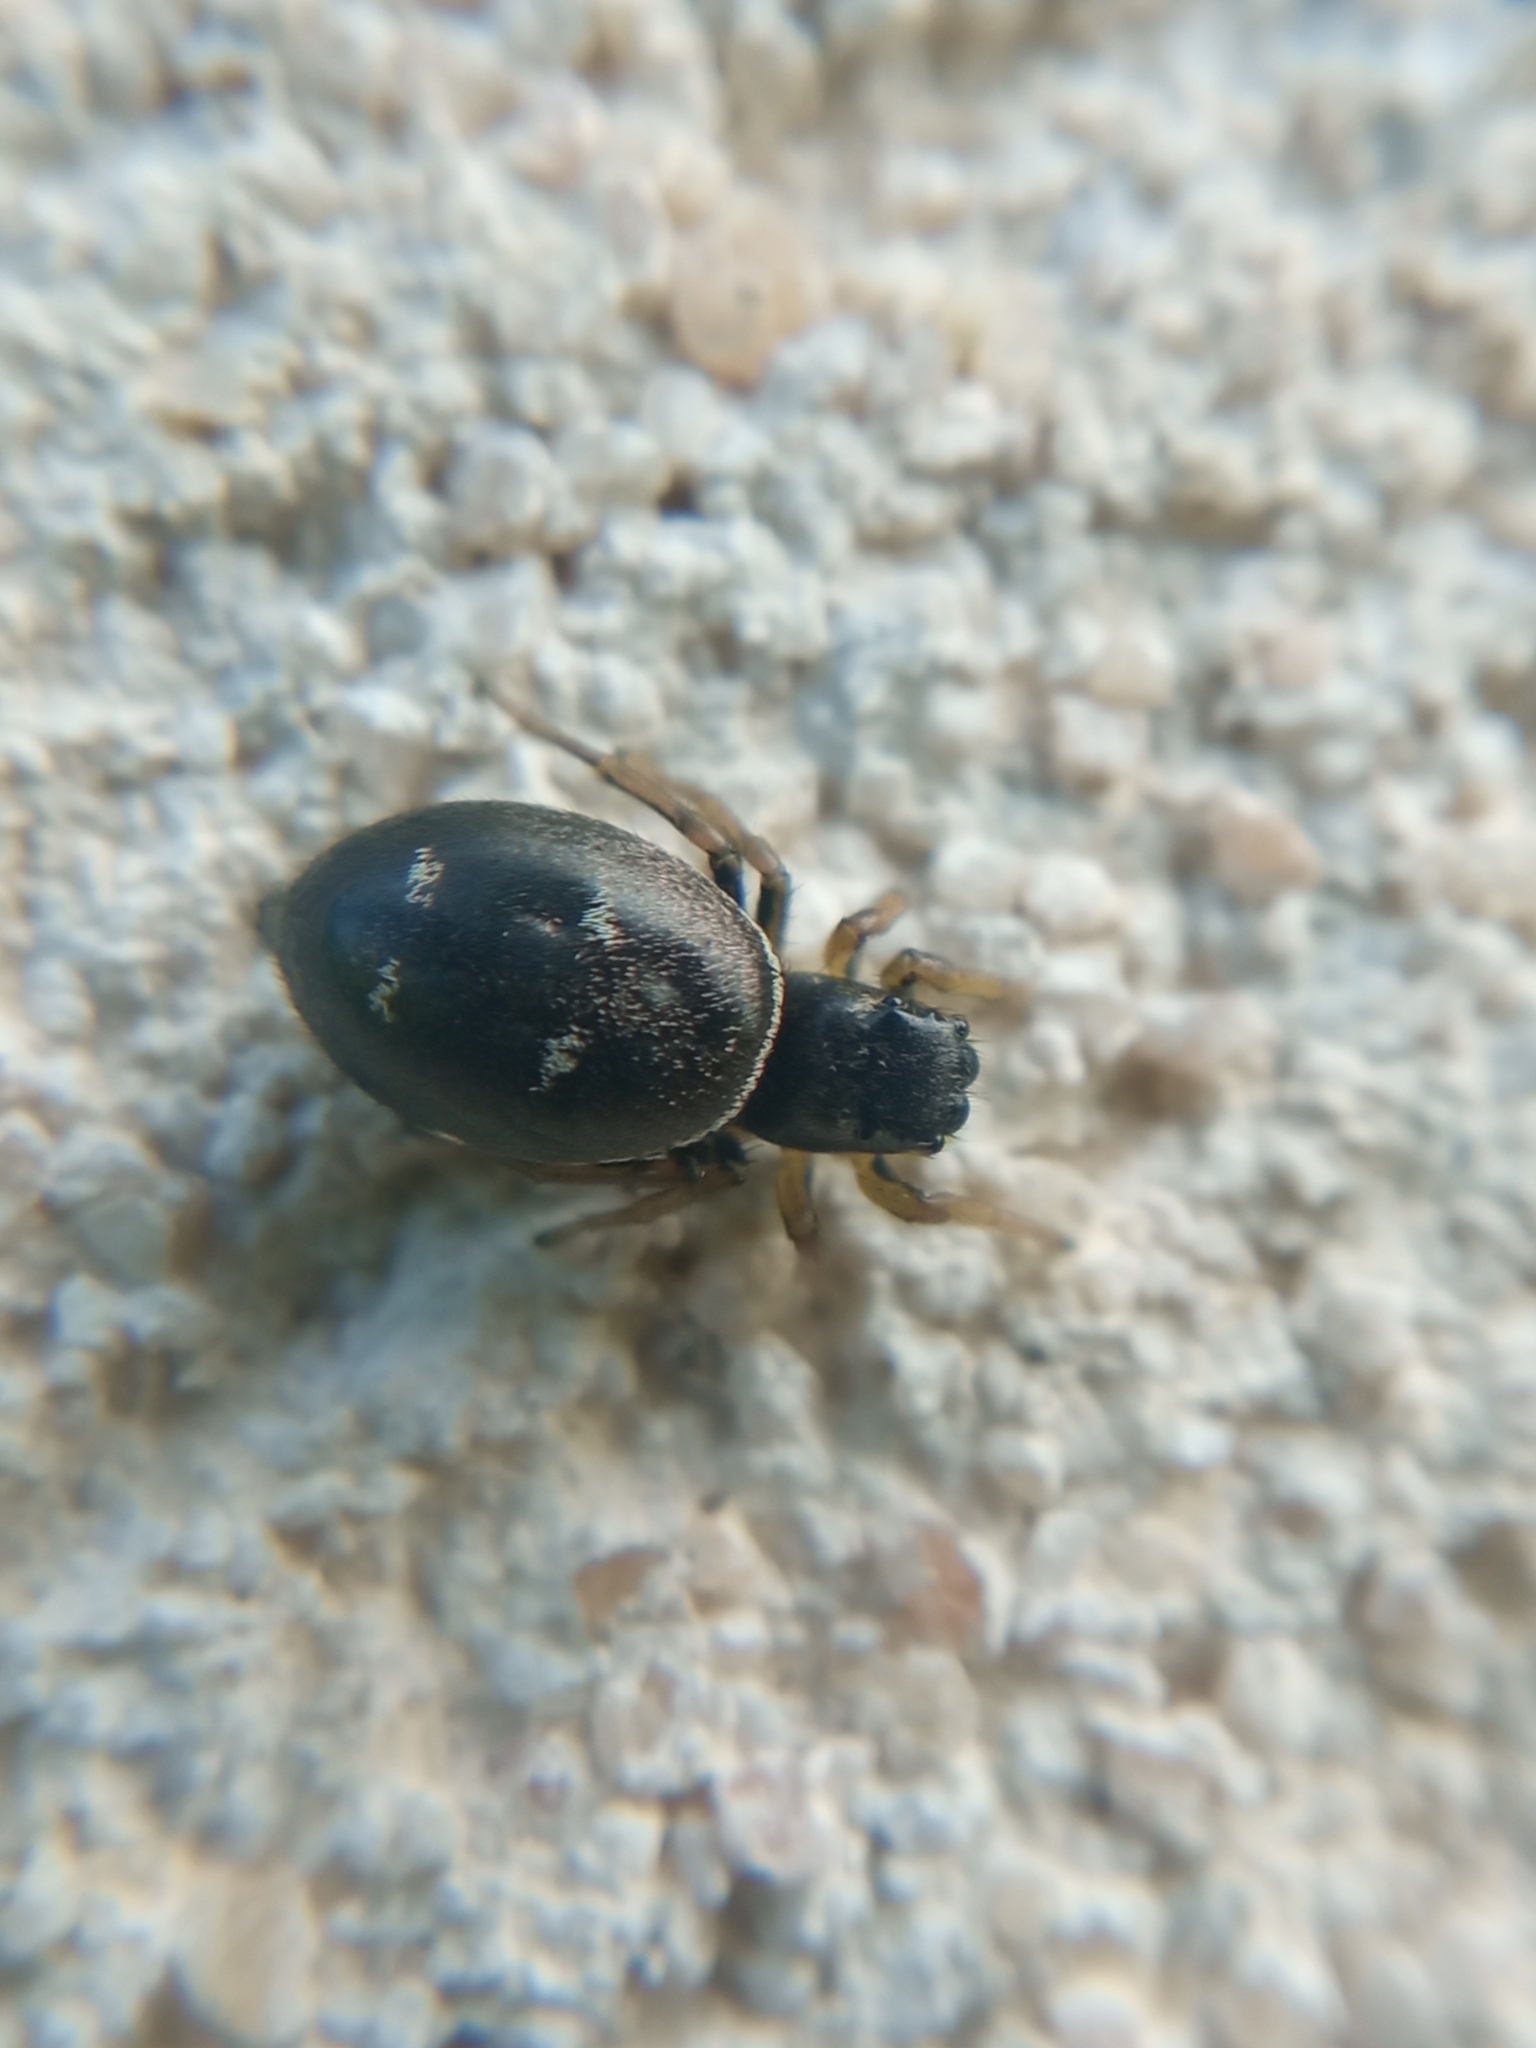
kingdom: Animalia
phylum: Arthropoda
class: Arachnida
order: Araneae
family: Salticidae
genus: Heliophanus
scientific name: Heliophanus cupreus
